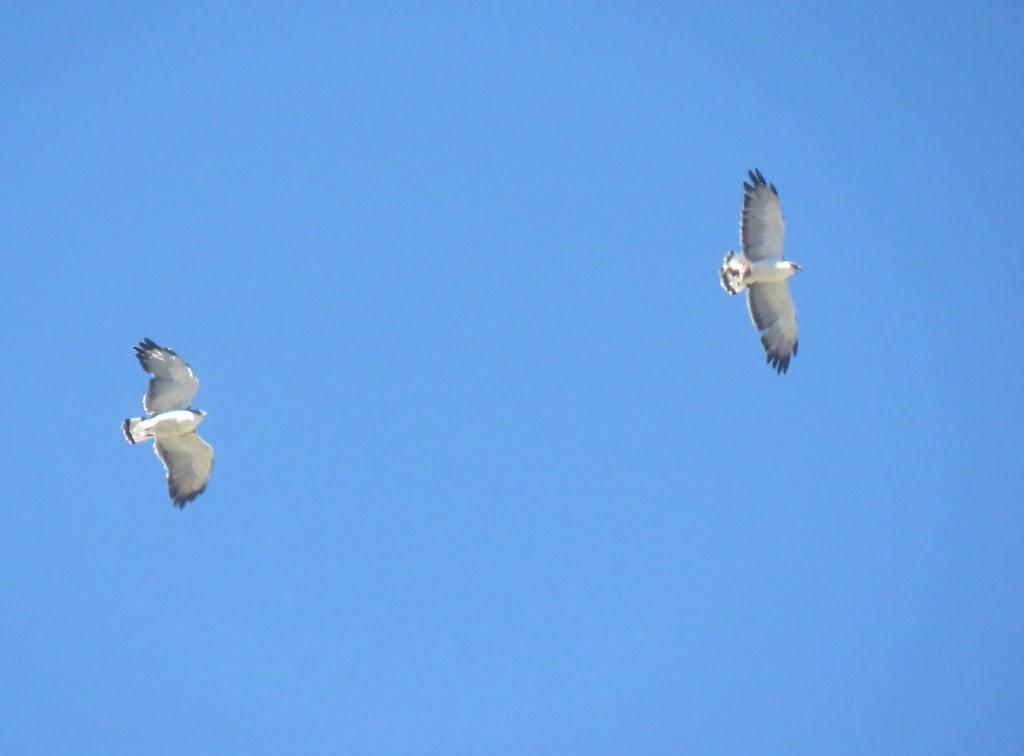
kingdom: Animalia
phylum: Chordata
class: Aves
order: Accipitriformes
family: Accipitridae
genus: Buteo
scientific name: Buteo polyosoma
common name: Variable hawk
